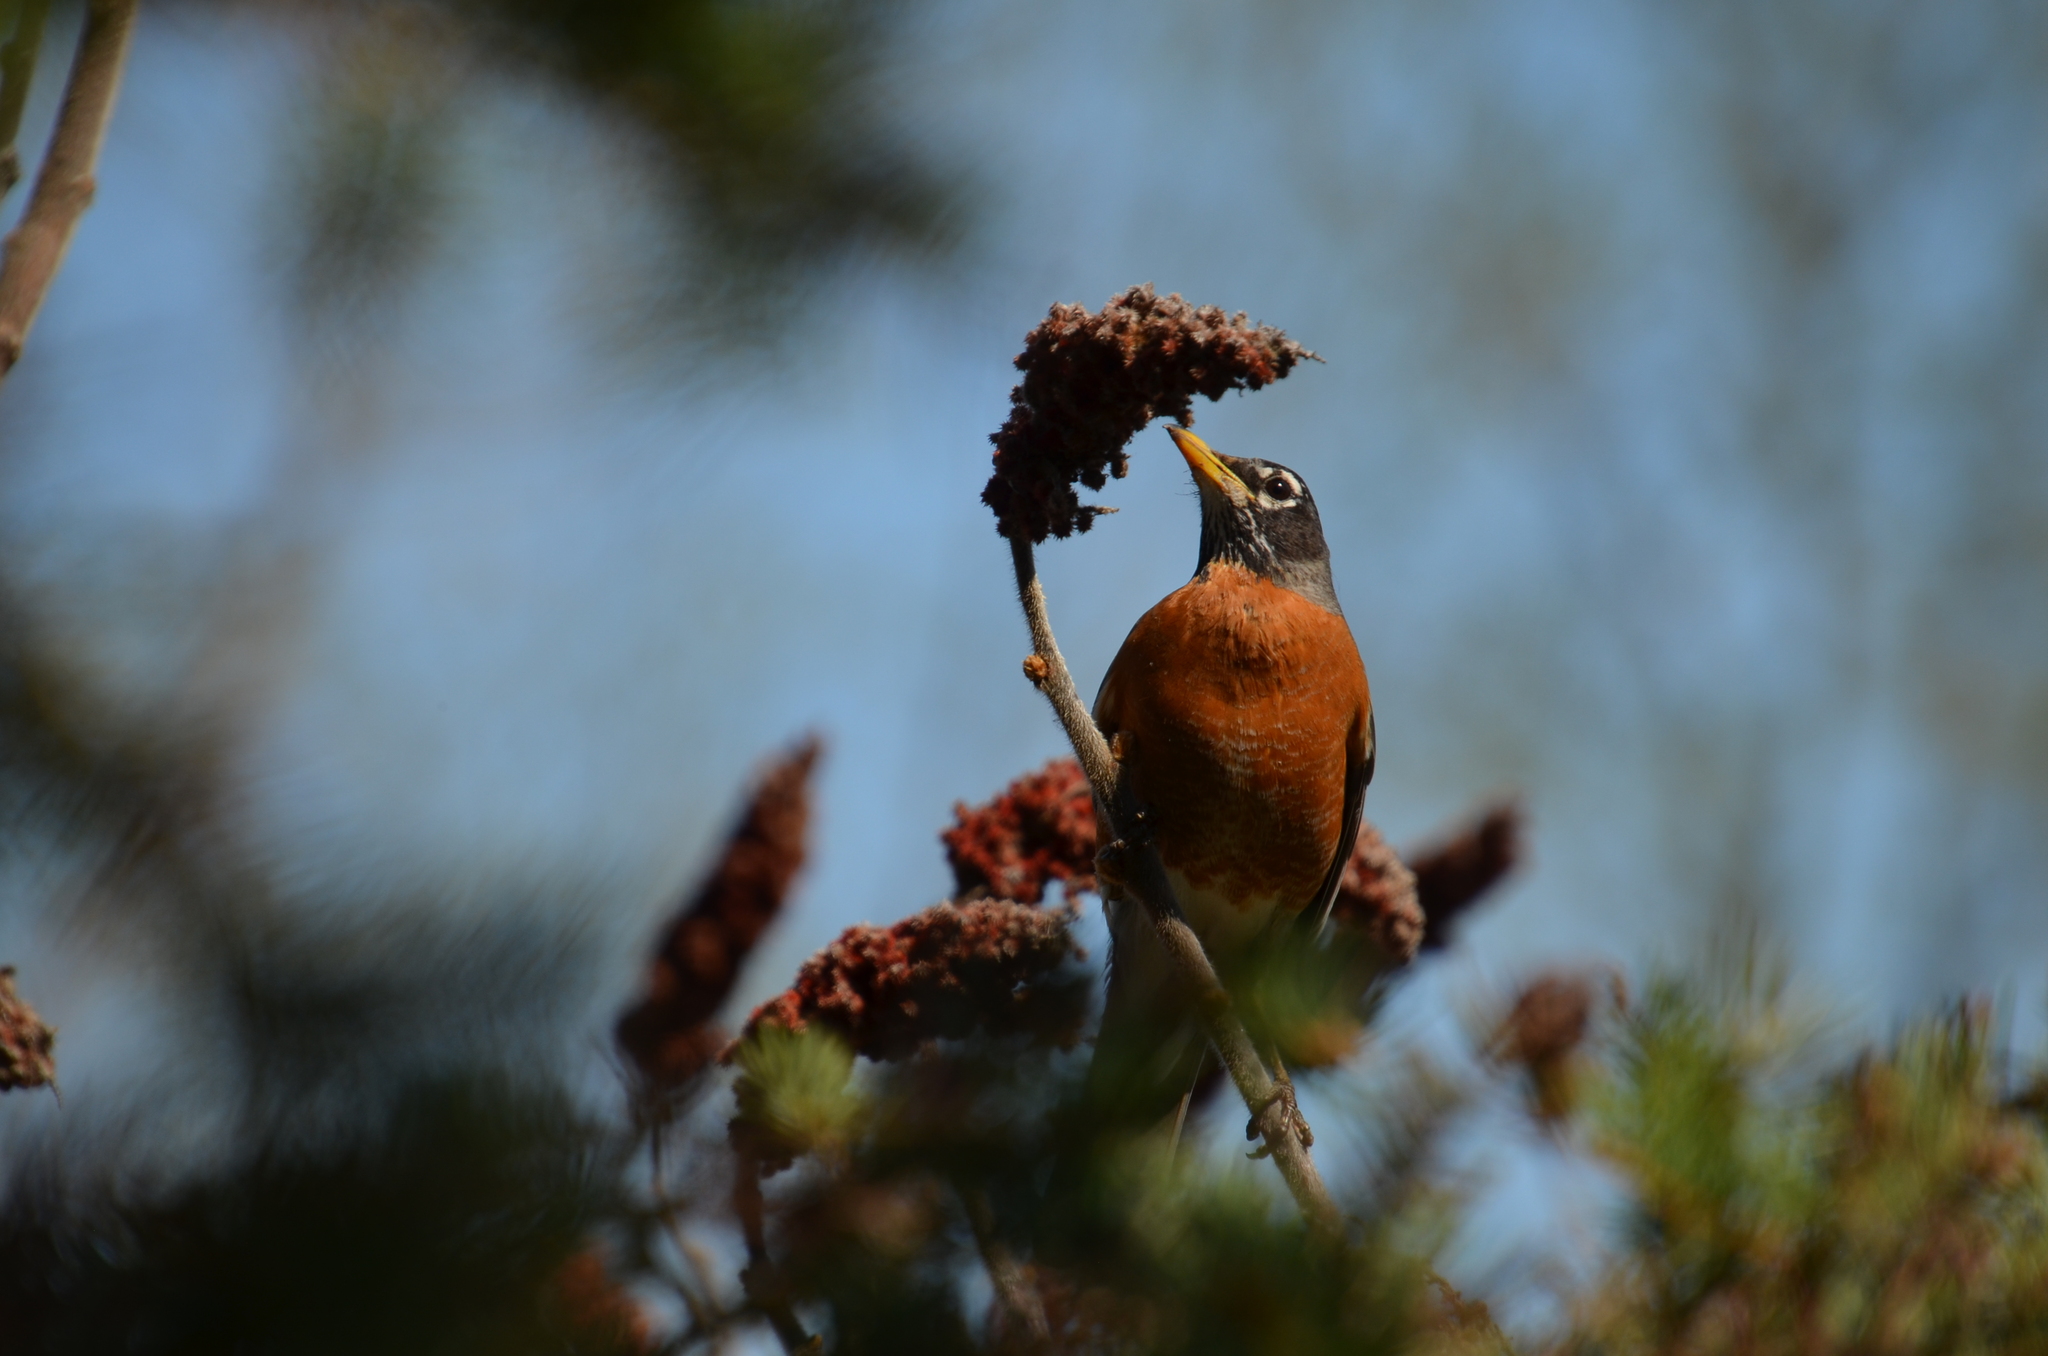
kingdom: Animalia
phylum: Chordata
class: Aves
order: Passeriformes
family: Turdidae
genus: Turdus
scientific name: Turdus migratorius
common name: American robin
